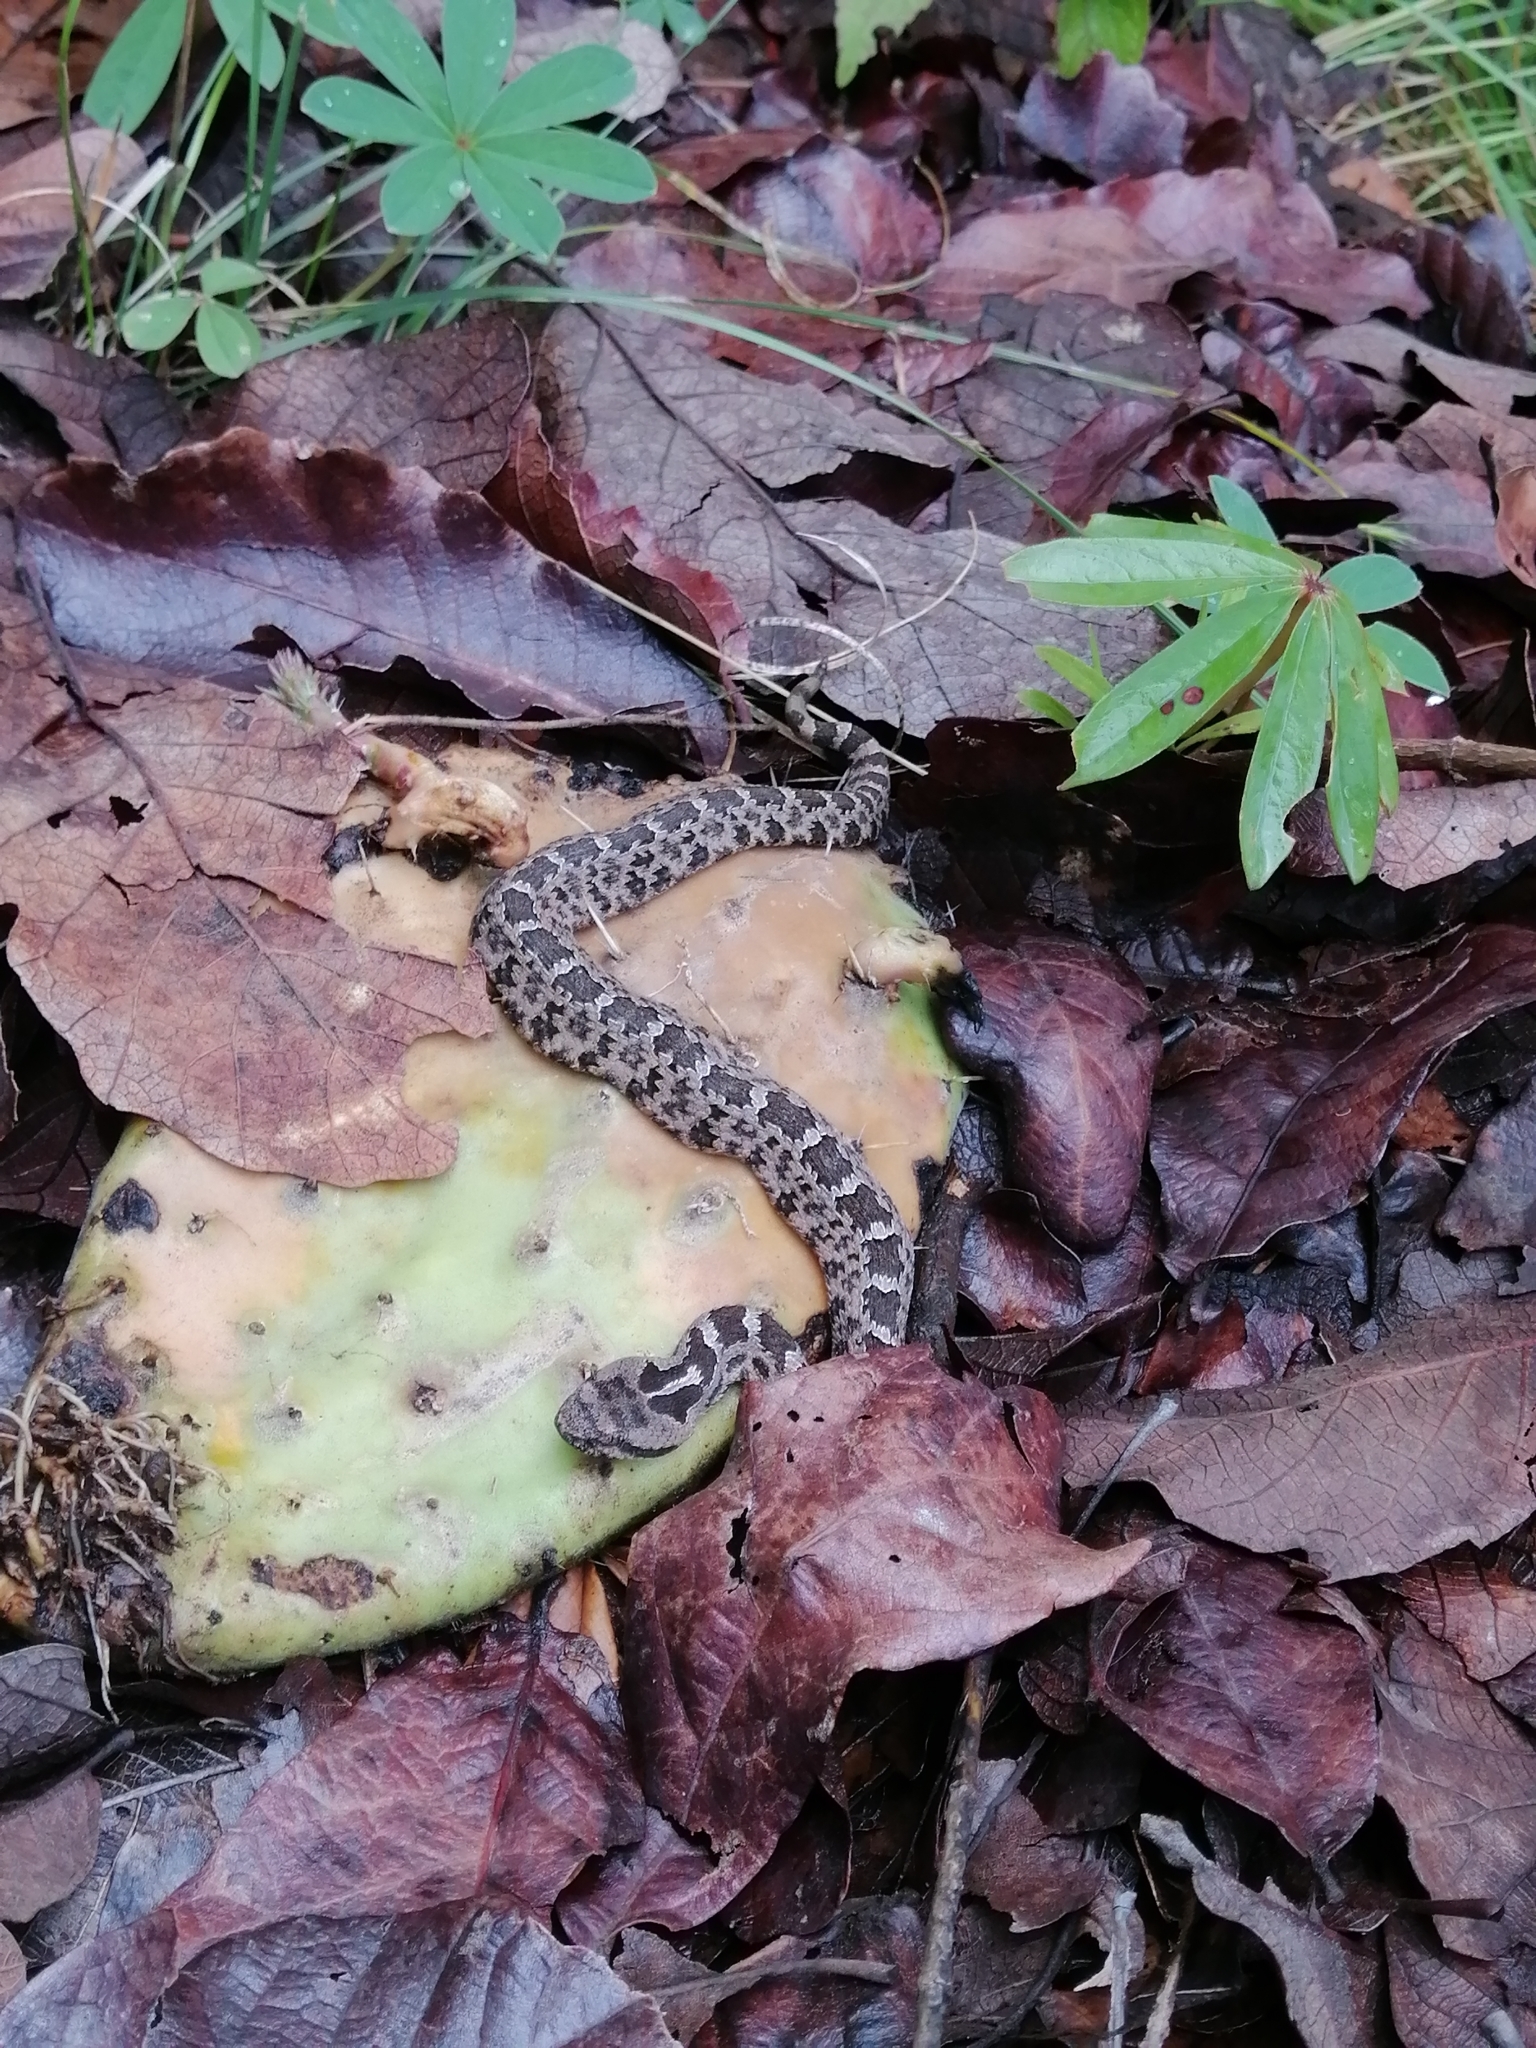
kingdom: Animalia
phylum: Chordata
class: Squamata
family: Viperidae
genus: Crotalus
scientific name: Crotalus aquilus
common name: Queretaran dusky rattlesnake
